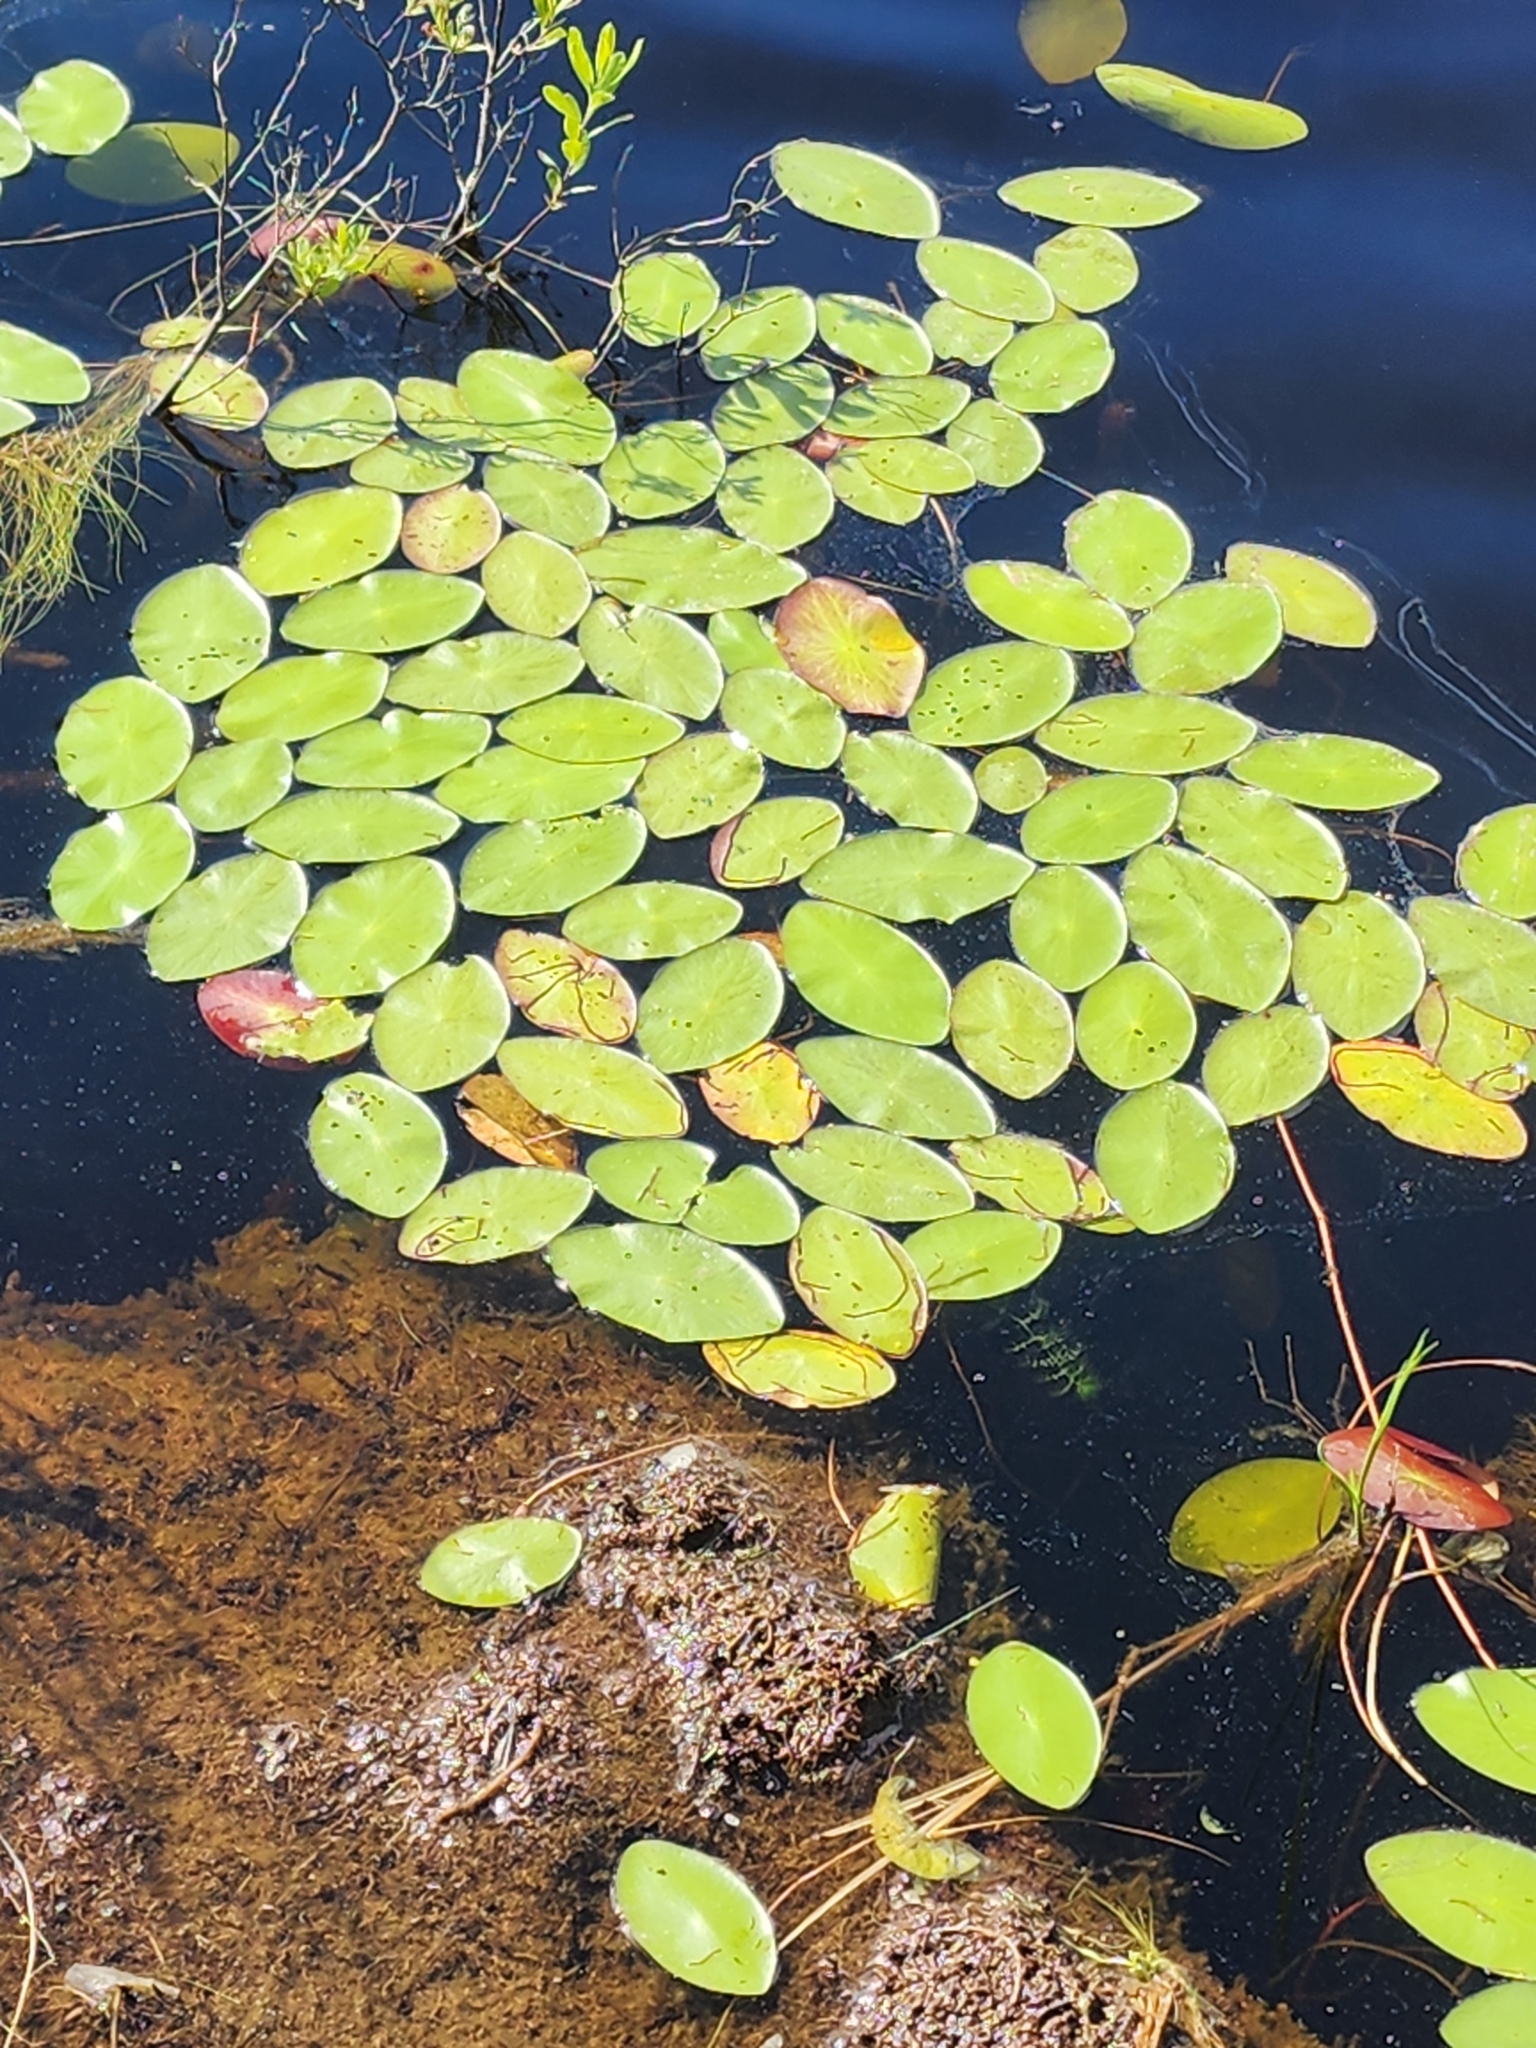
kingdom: Plantae
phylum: Tracheophyta
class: Magnoliopsida
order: Nymphaeales
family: Cabombaceae
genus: Brasenia
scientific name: Brasenia schreberi
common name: Water-shield
